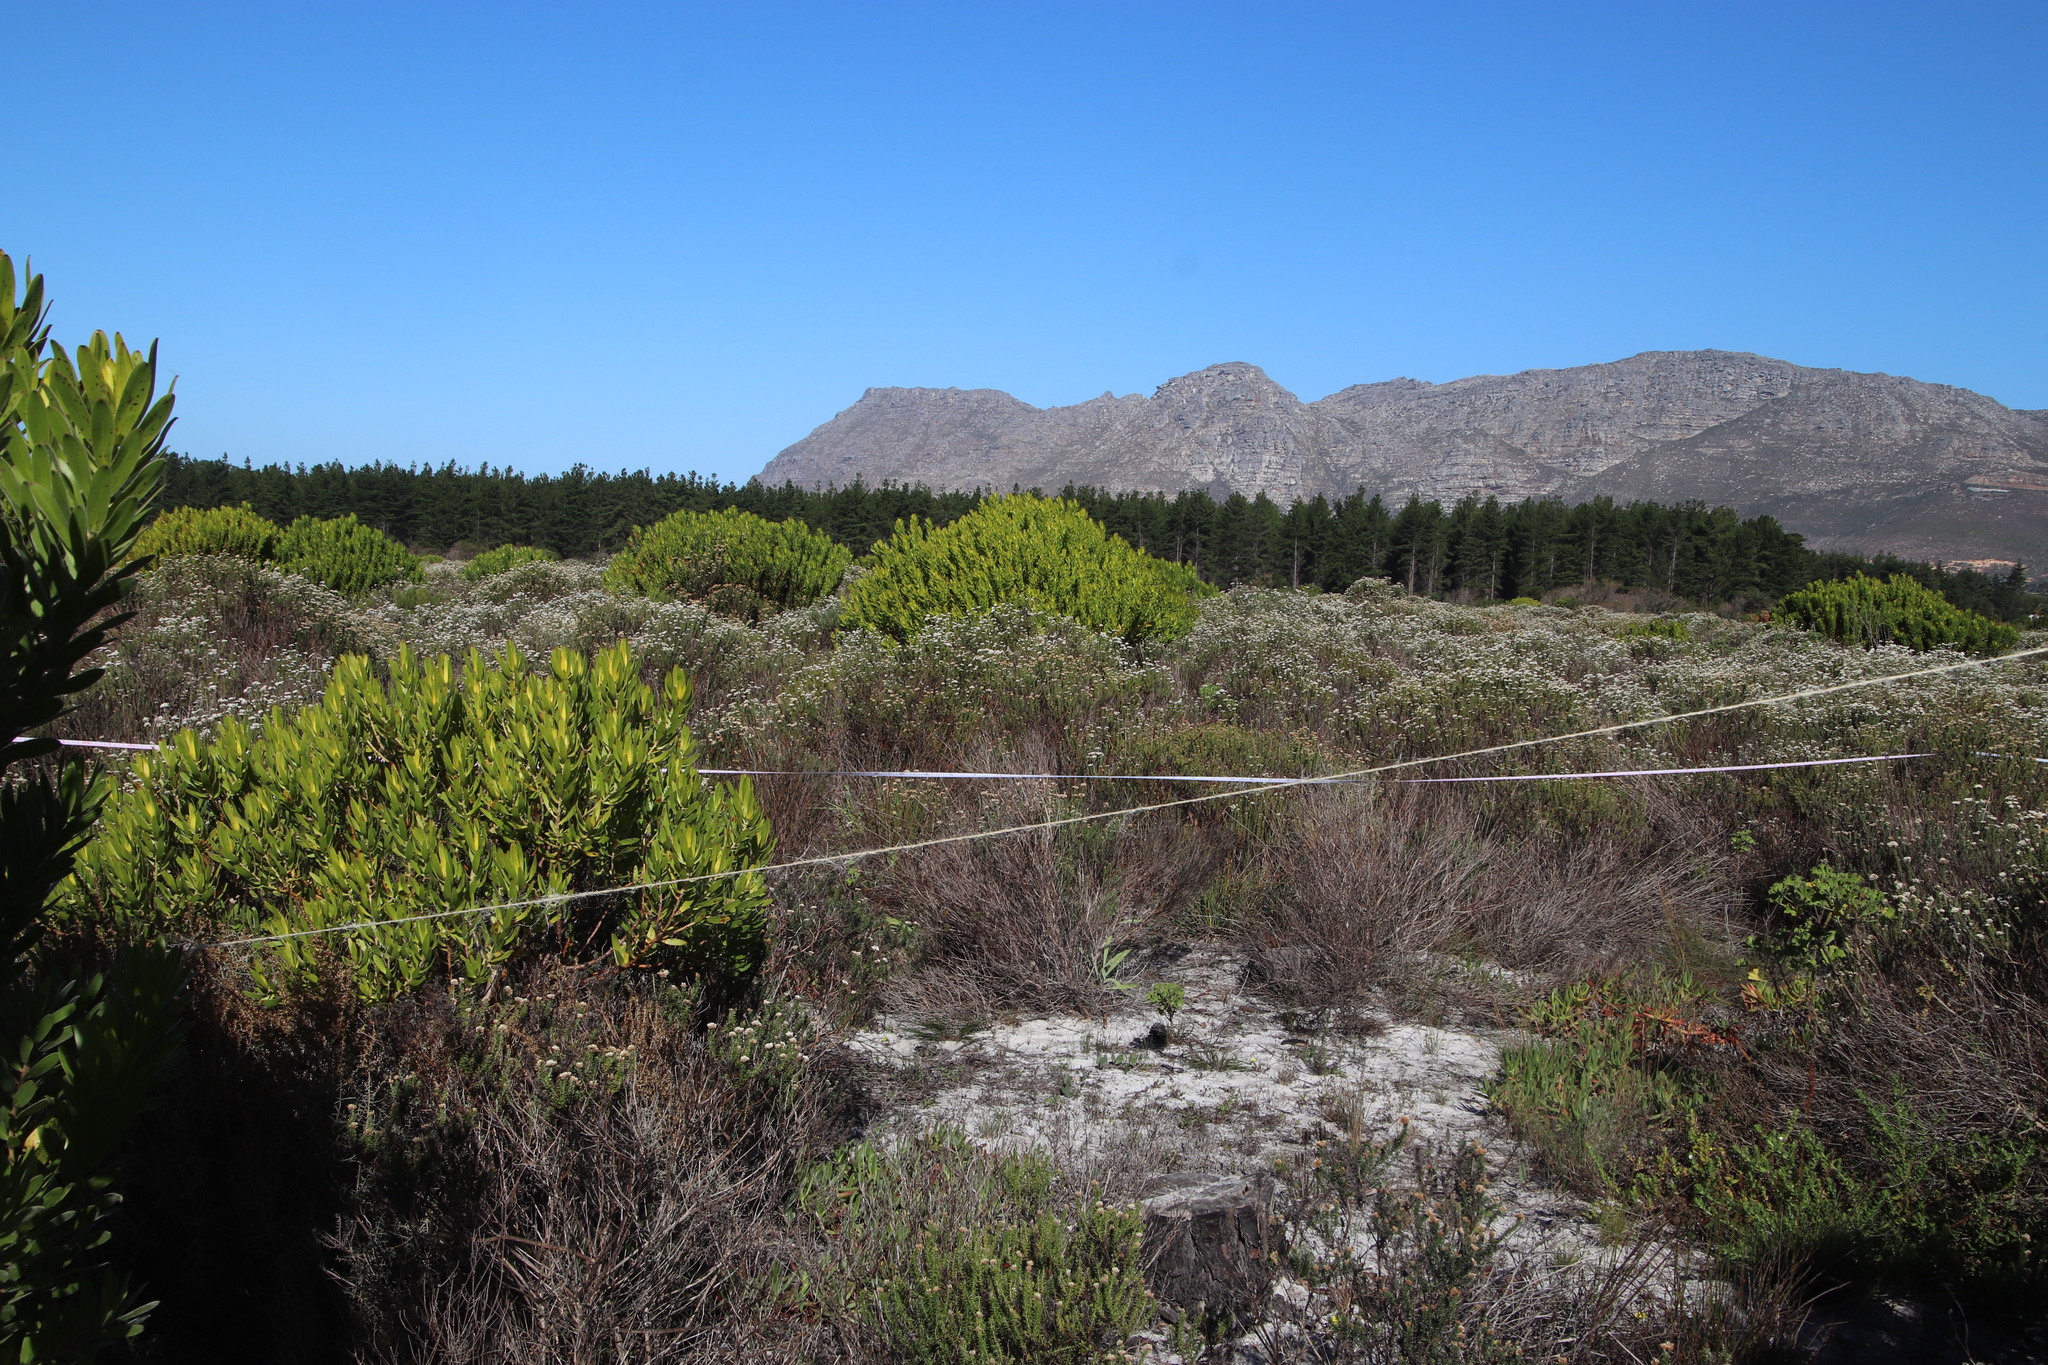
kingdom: Plantae
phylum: Tracheophyta
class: Liliopsida
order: Poales
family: Restionaceae
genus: Restio
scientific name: Restio bifurcus
